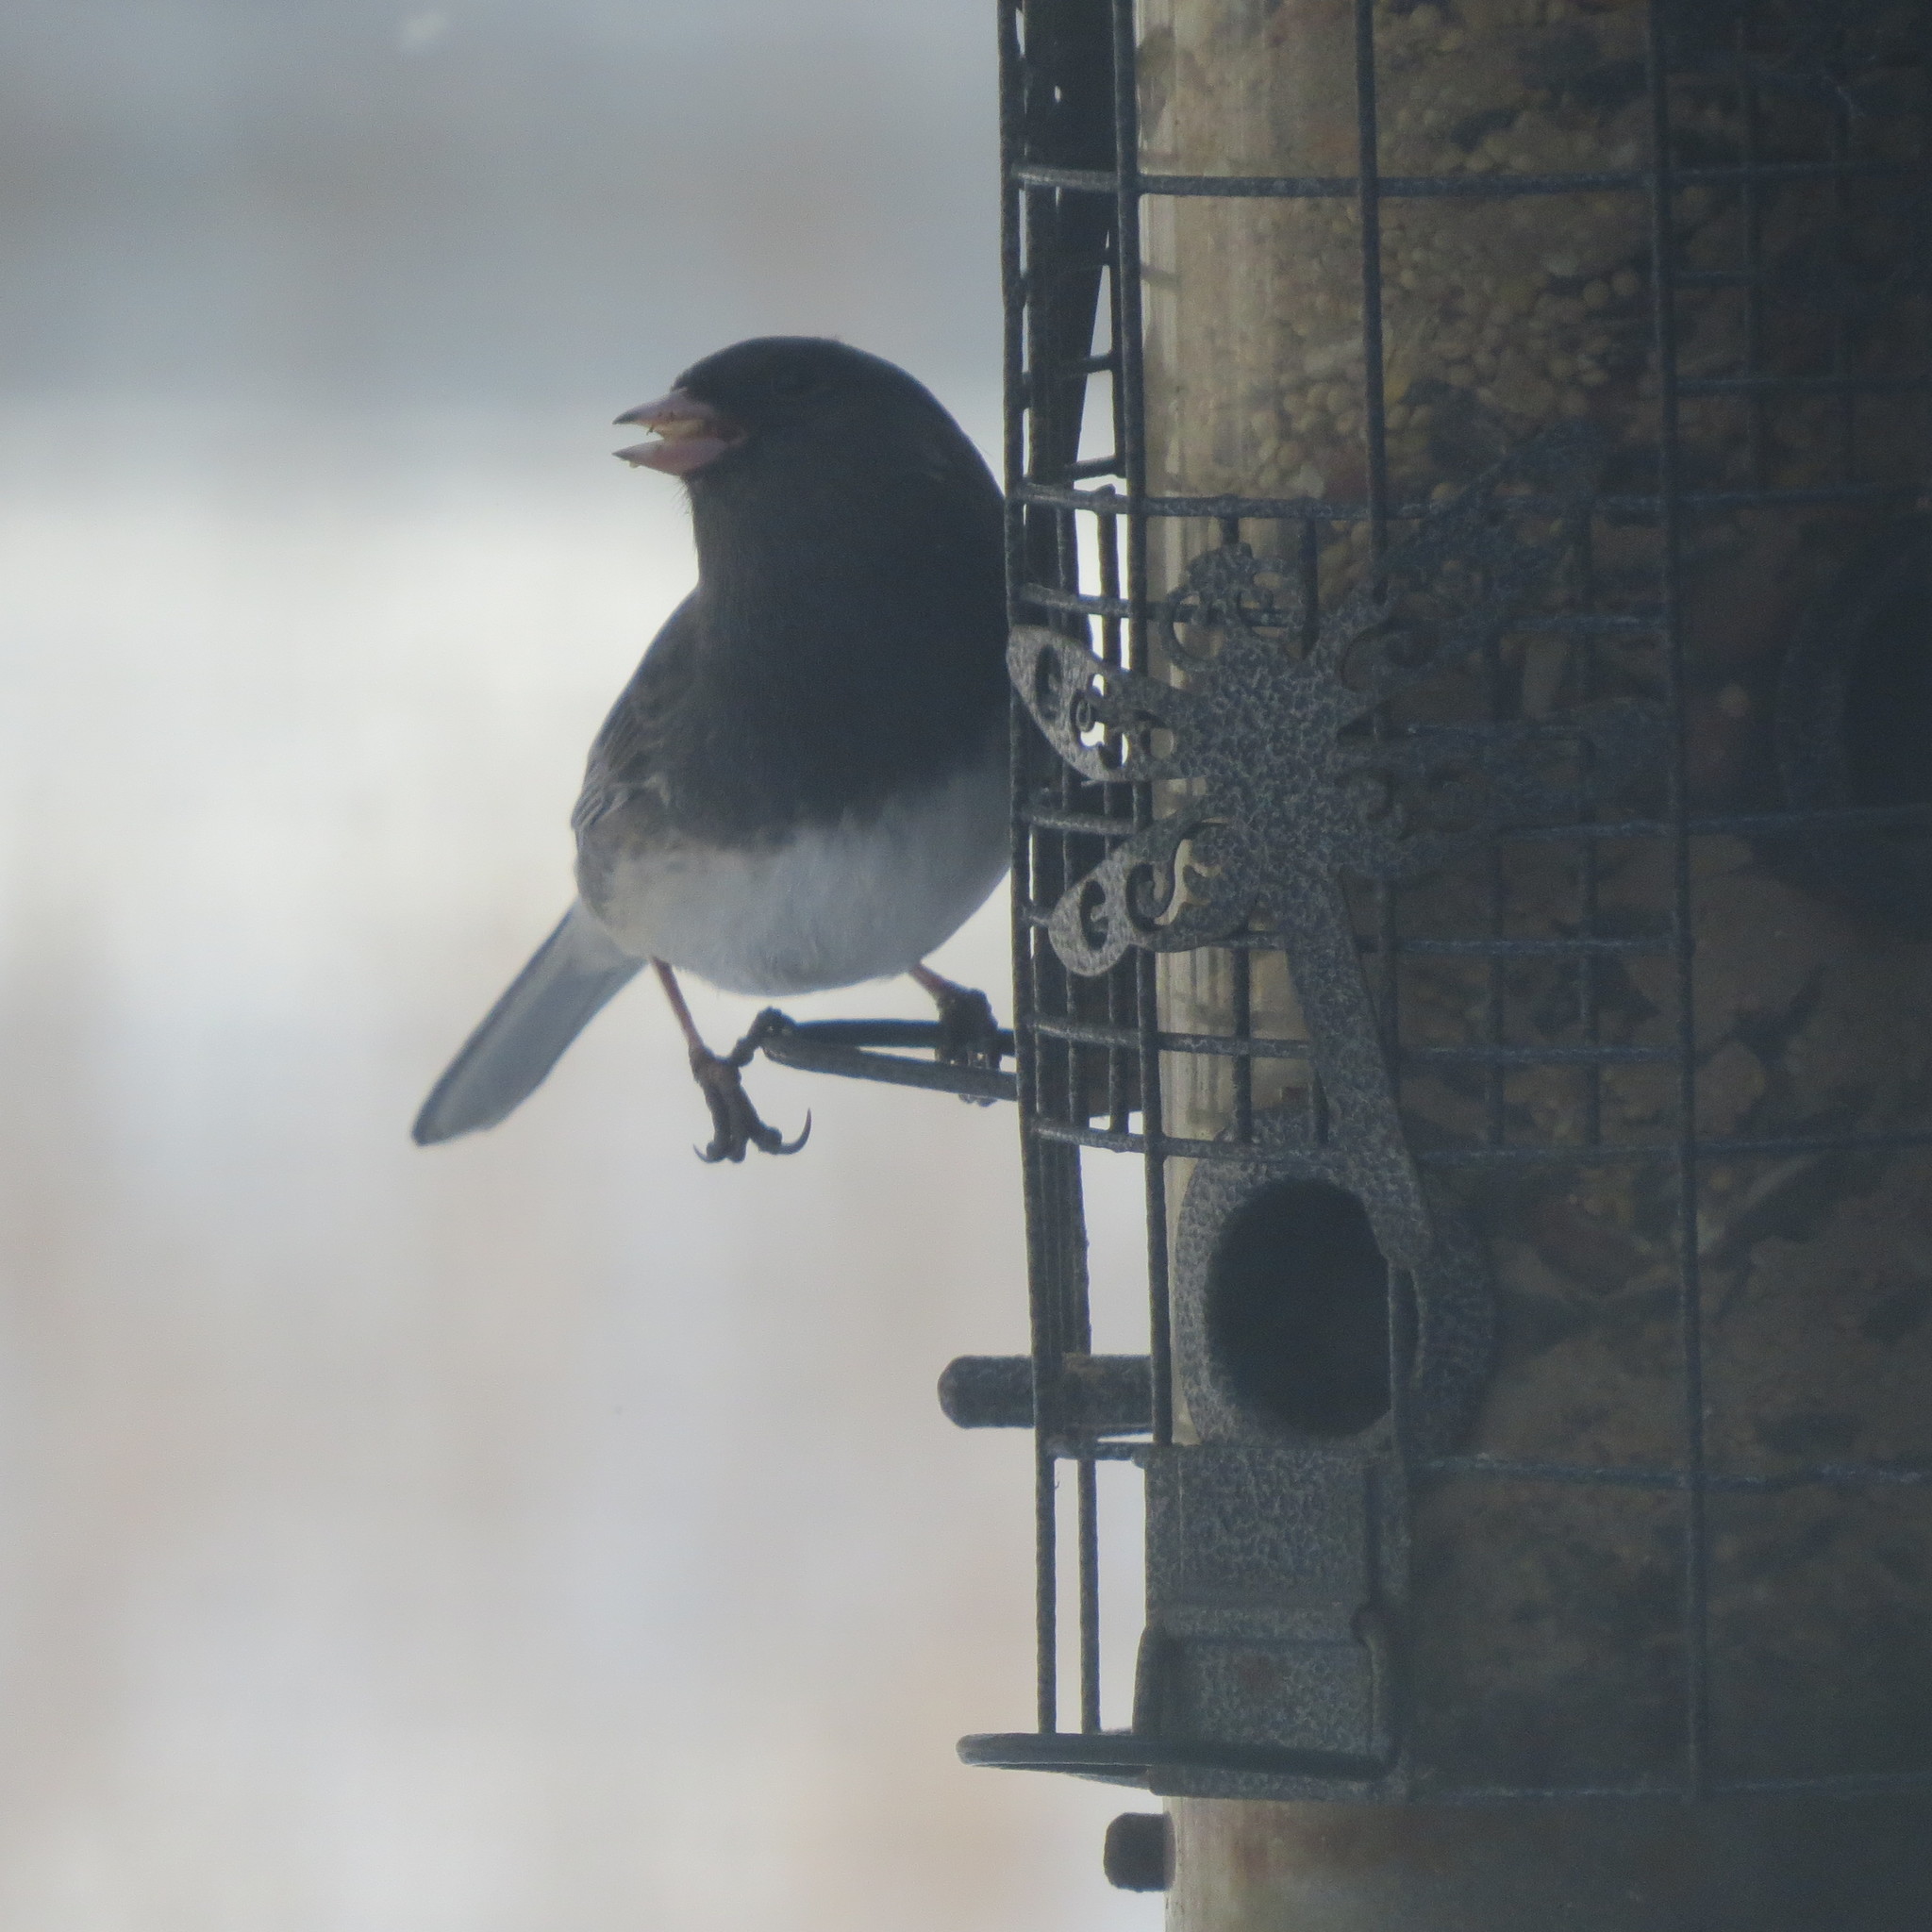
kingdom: Animalia
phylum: Chordata
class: Aves
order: Passeriformes
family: Passerellidae
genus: Junco
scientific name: Junco hyemalis
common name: Dark-eyed junco
